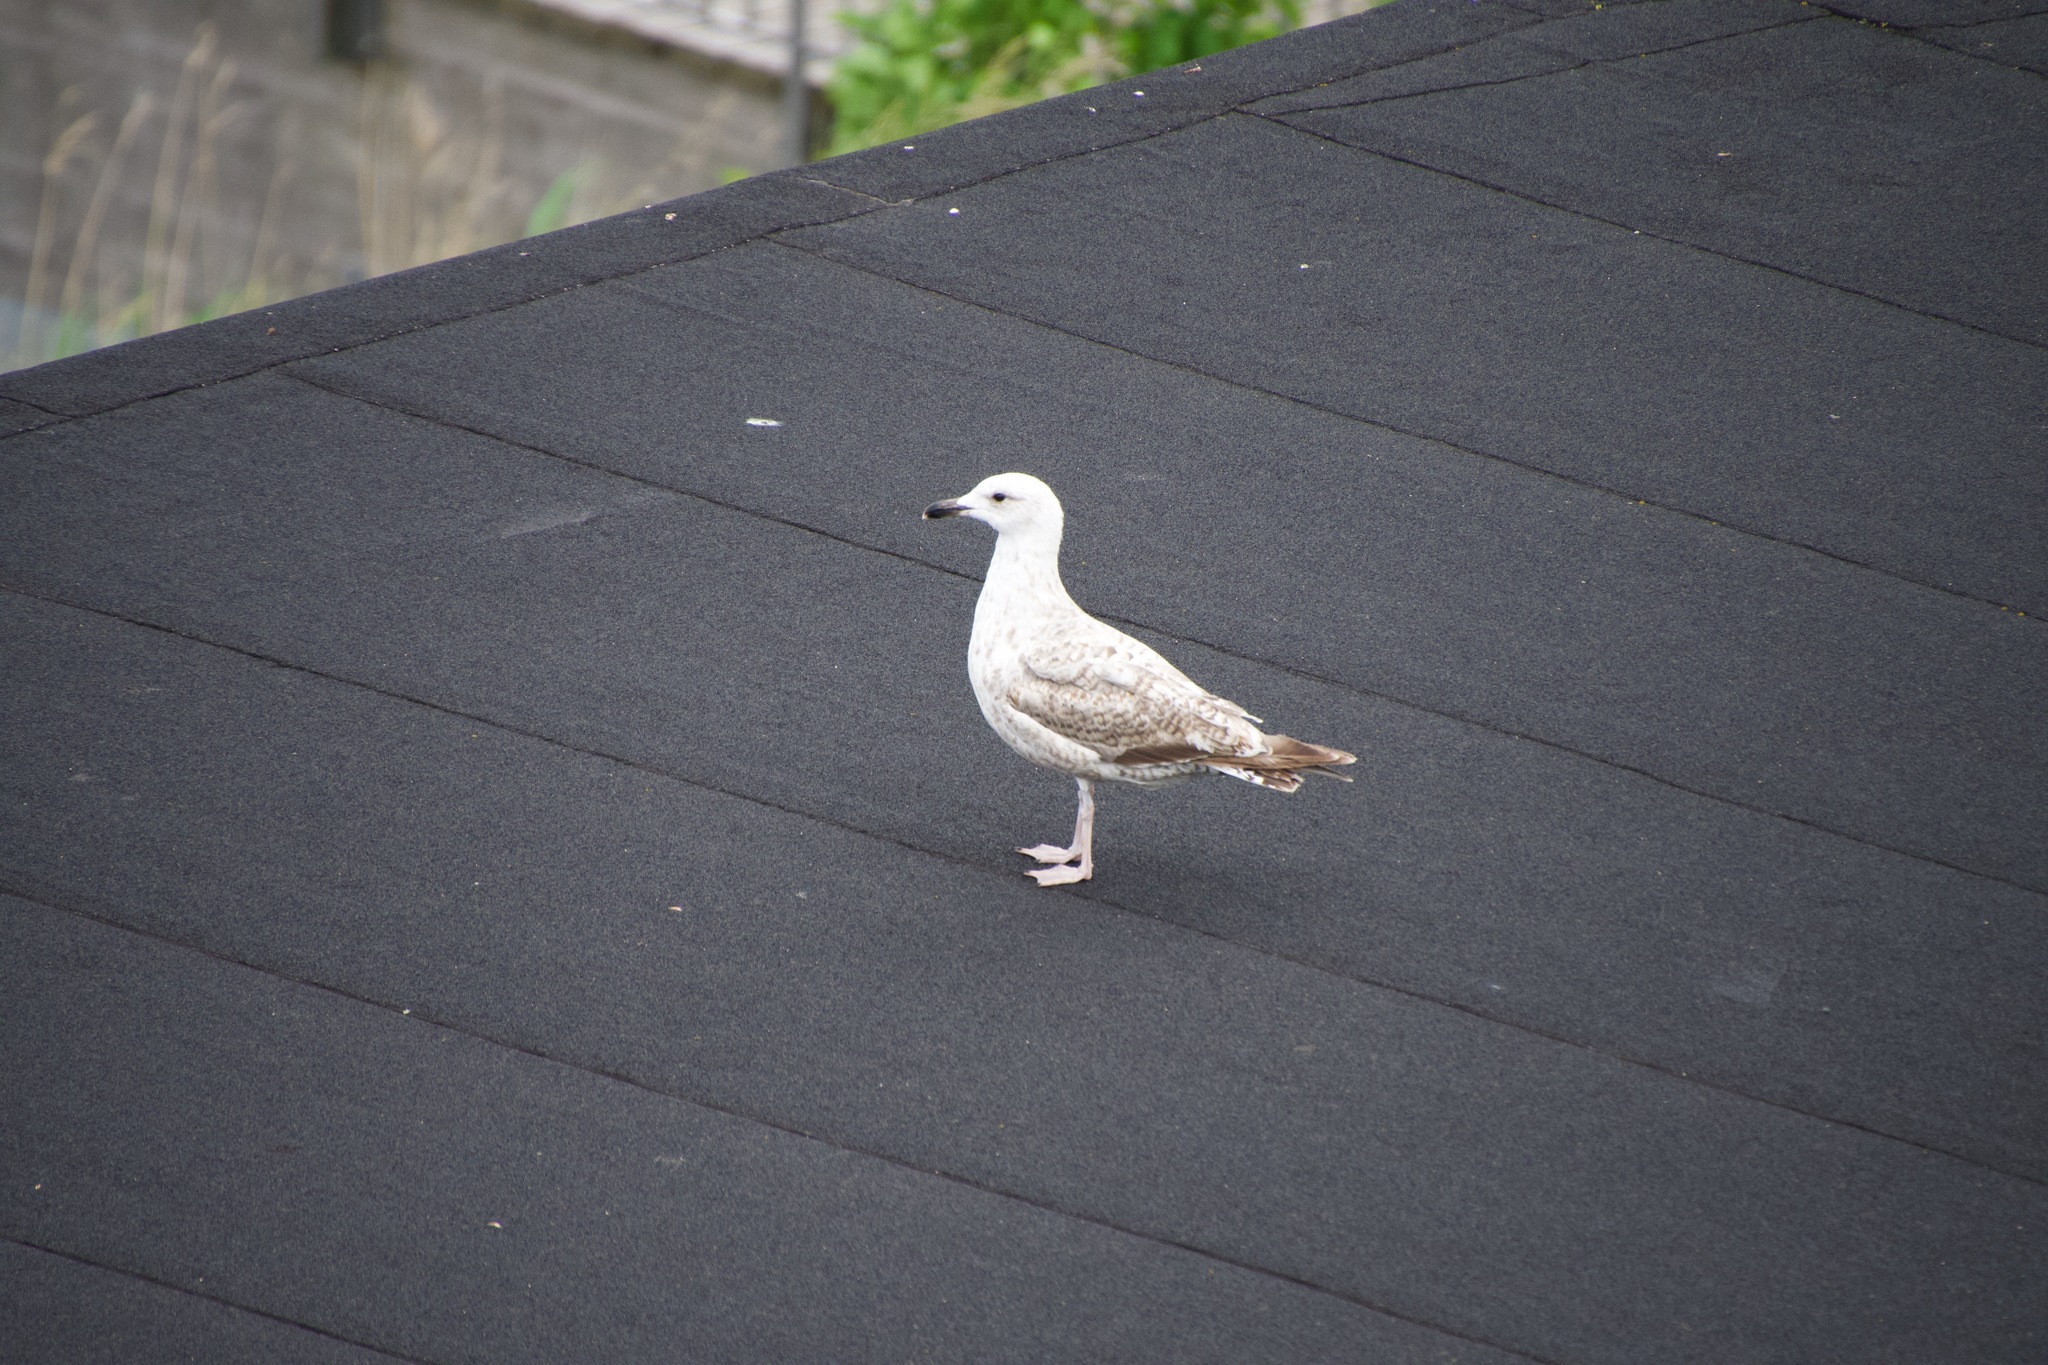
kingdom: Animalia
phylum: Chordata
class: Aves
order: Charadriiformes
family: Laridae
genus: Larus
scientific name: Larus argentatus
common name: Herring gull
